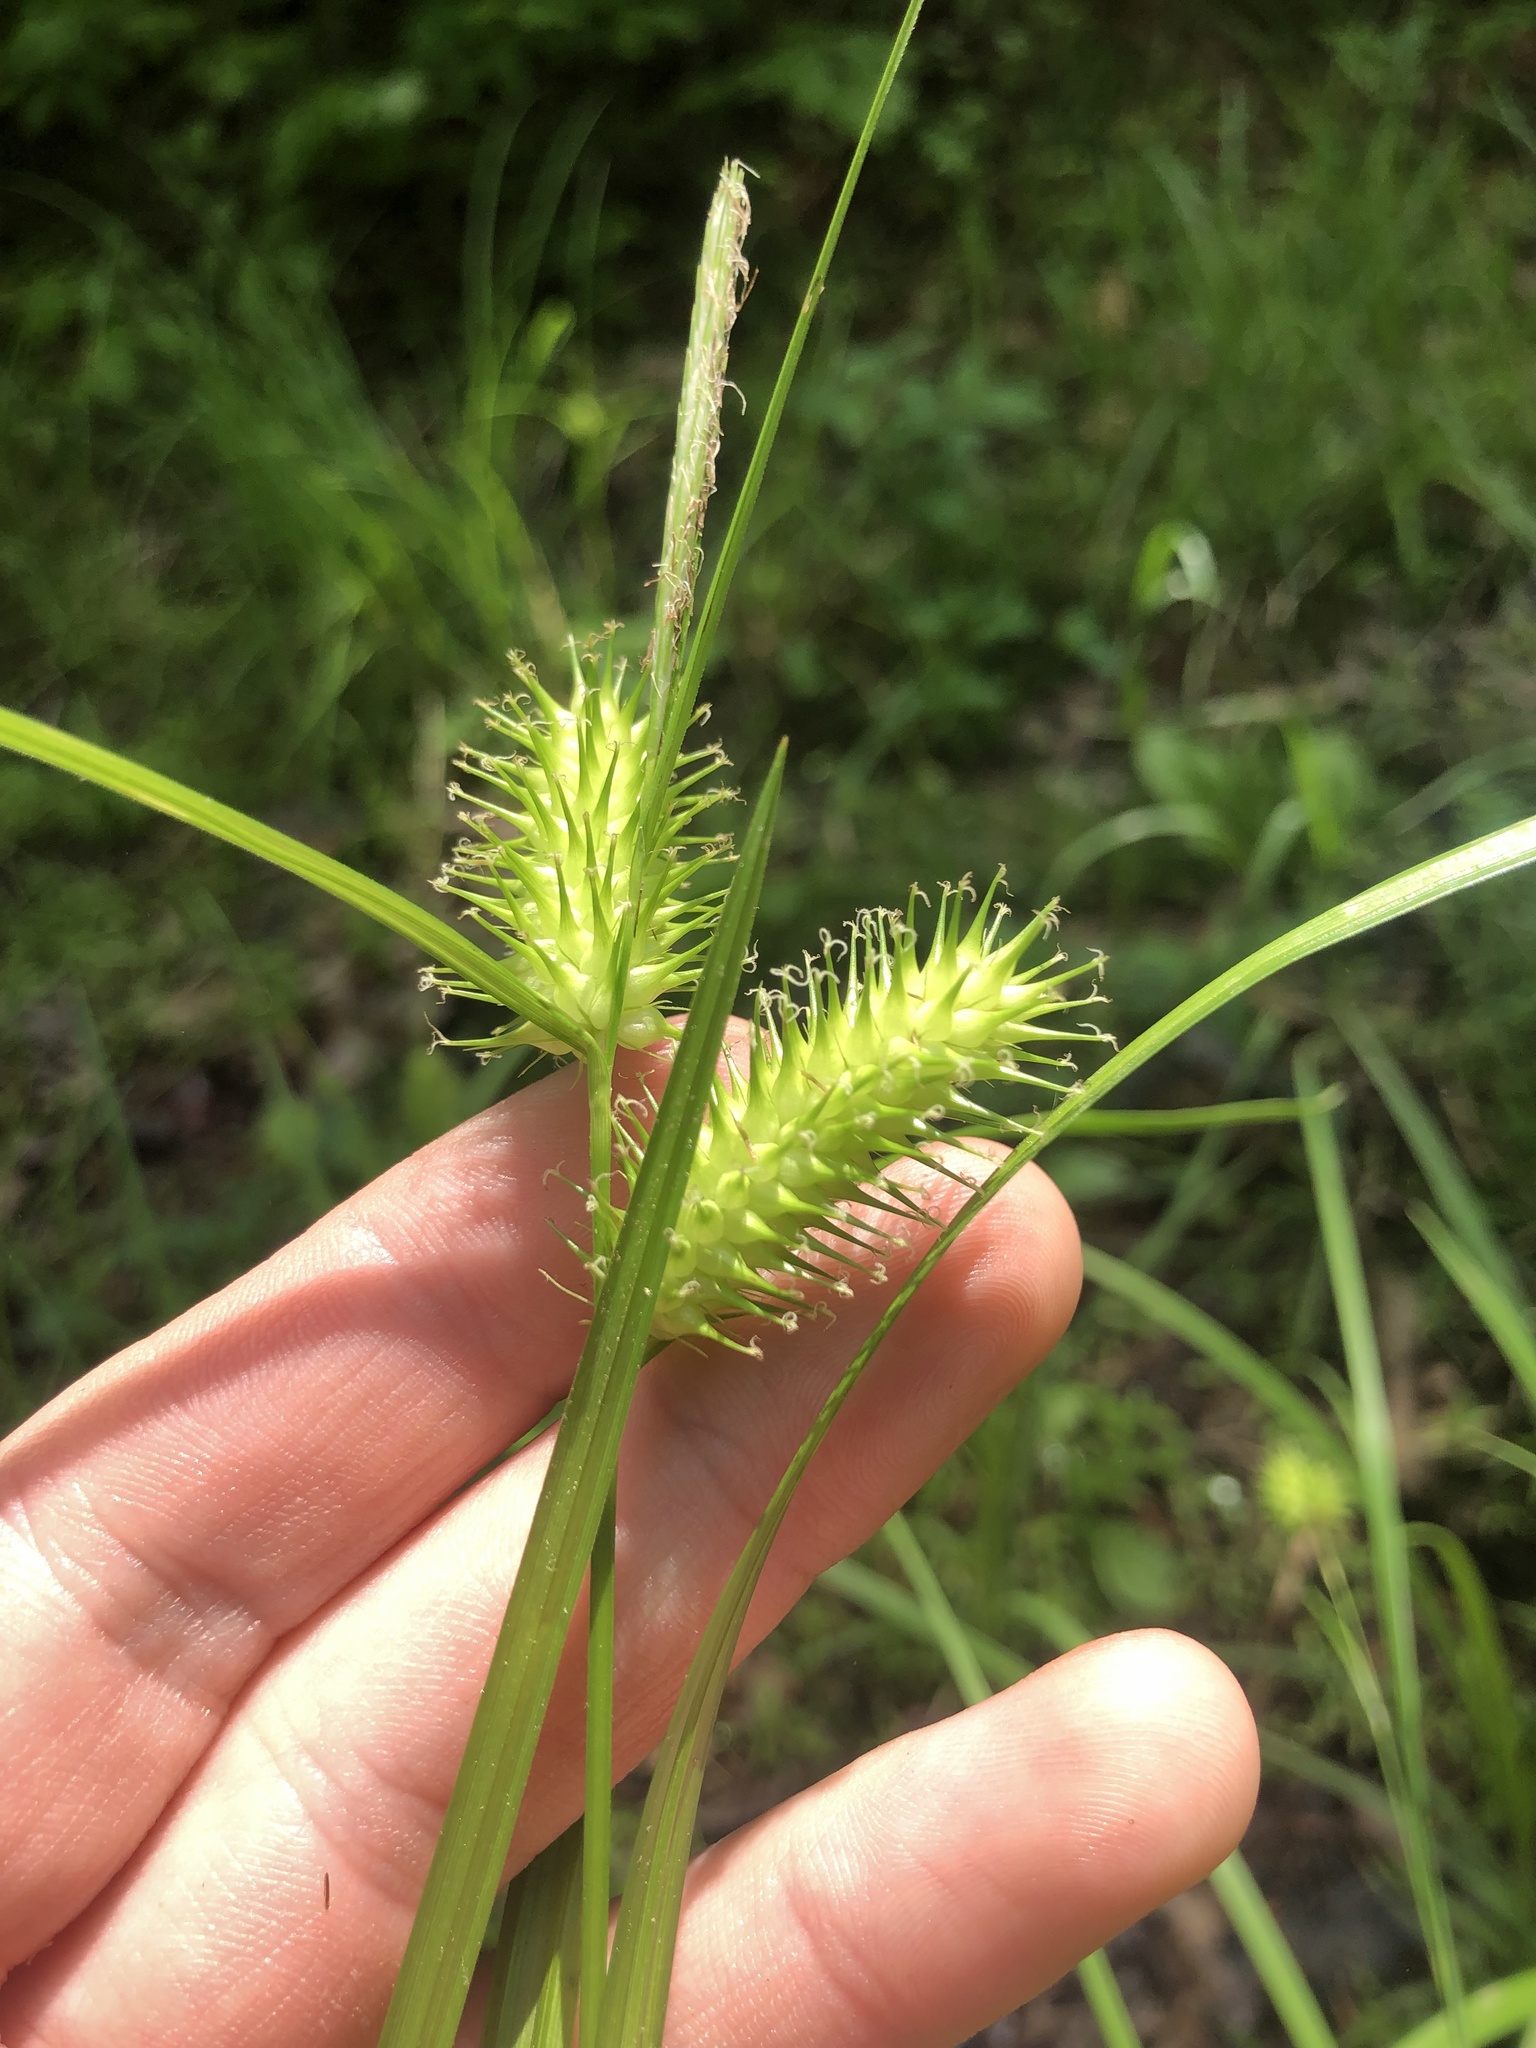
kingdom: Plantae
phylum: Tracheophyta
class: Liliopsida
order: Poales
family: Cyperaceae
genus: Carex
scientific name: Carex lurida
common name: Sallow sedge
